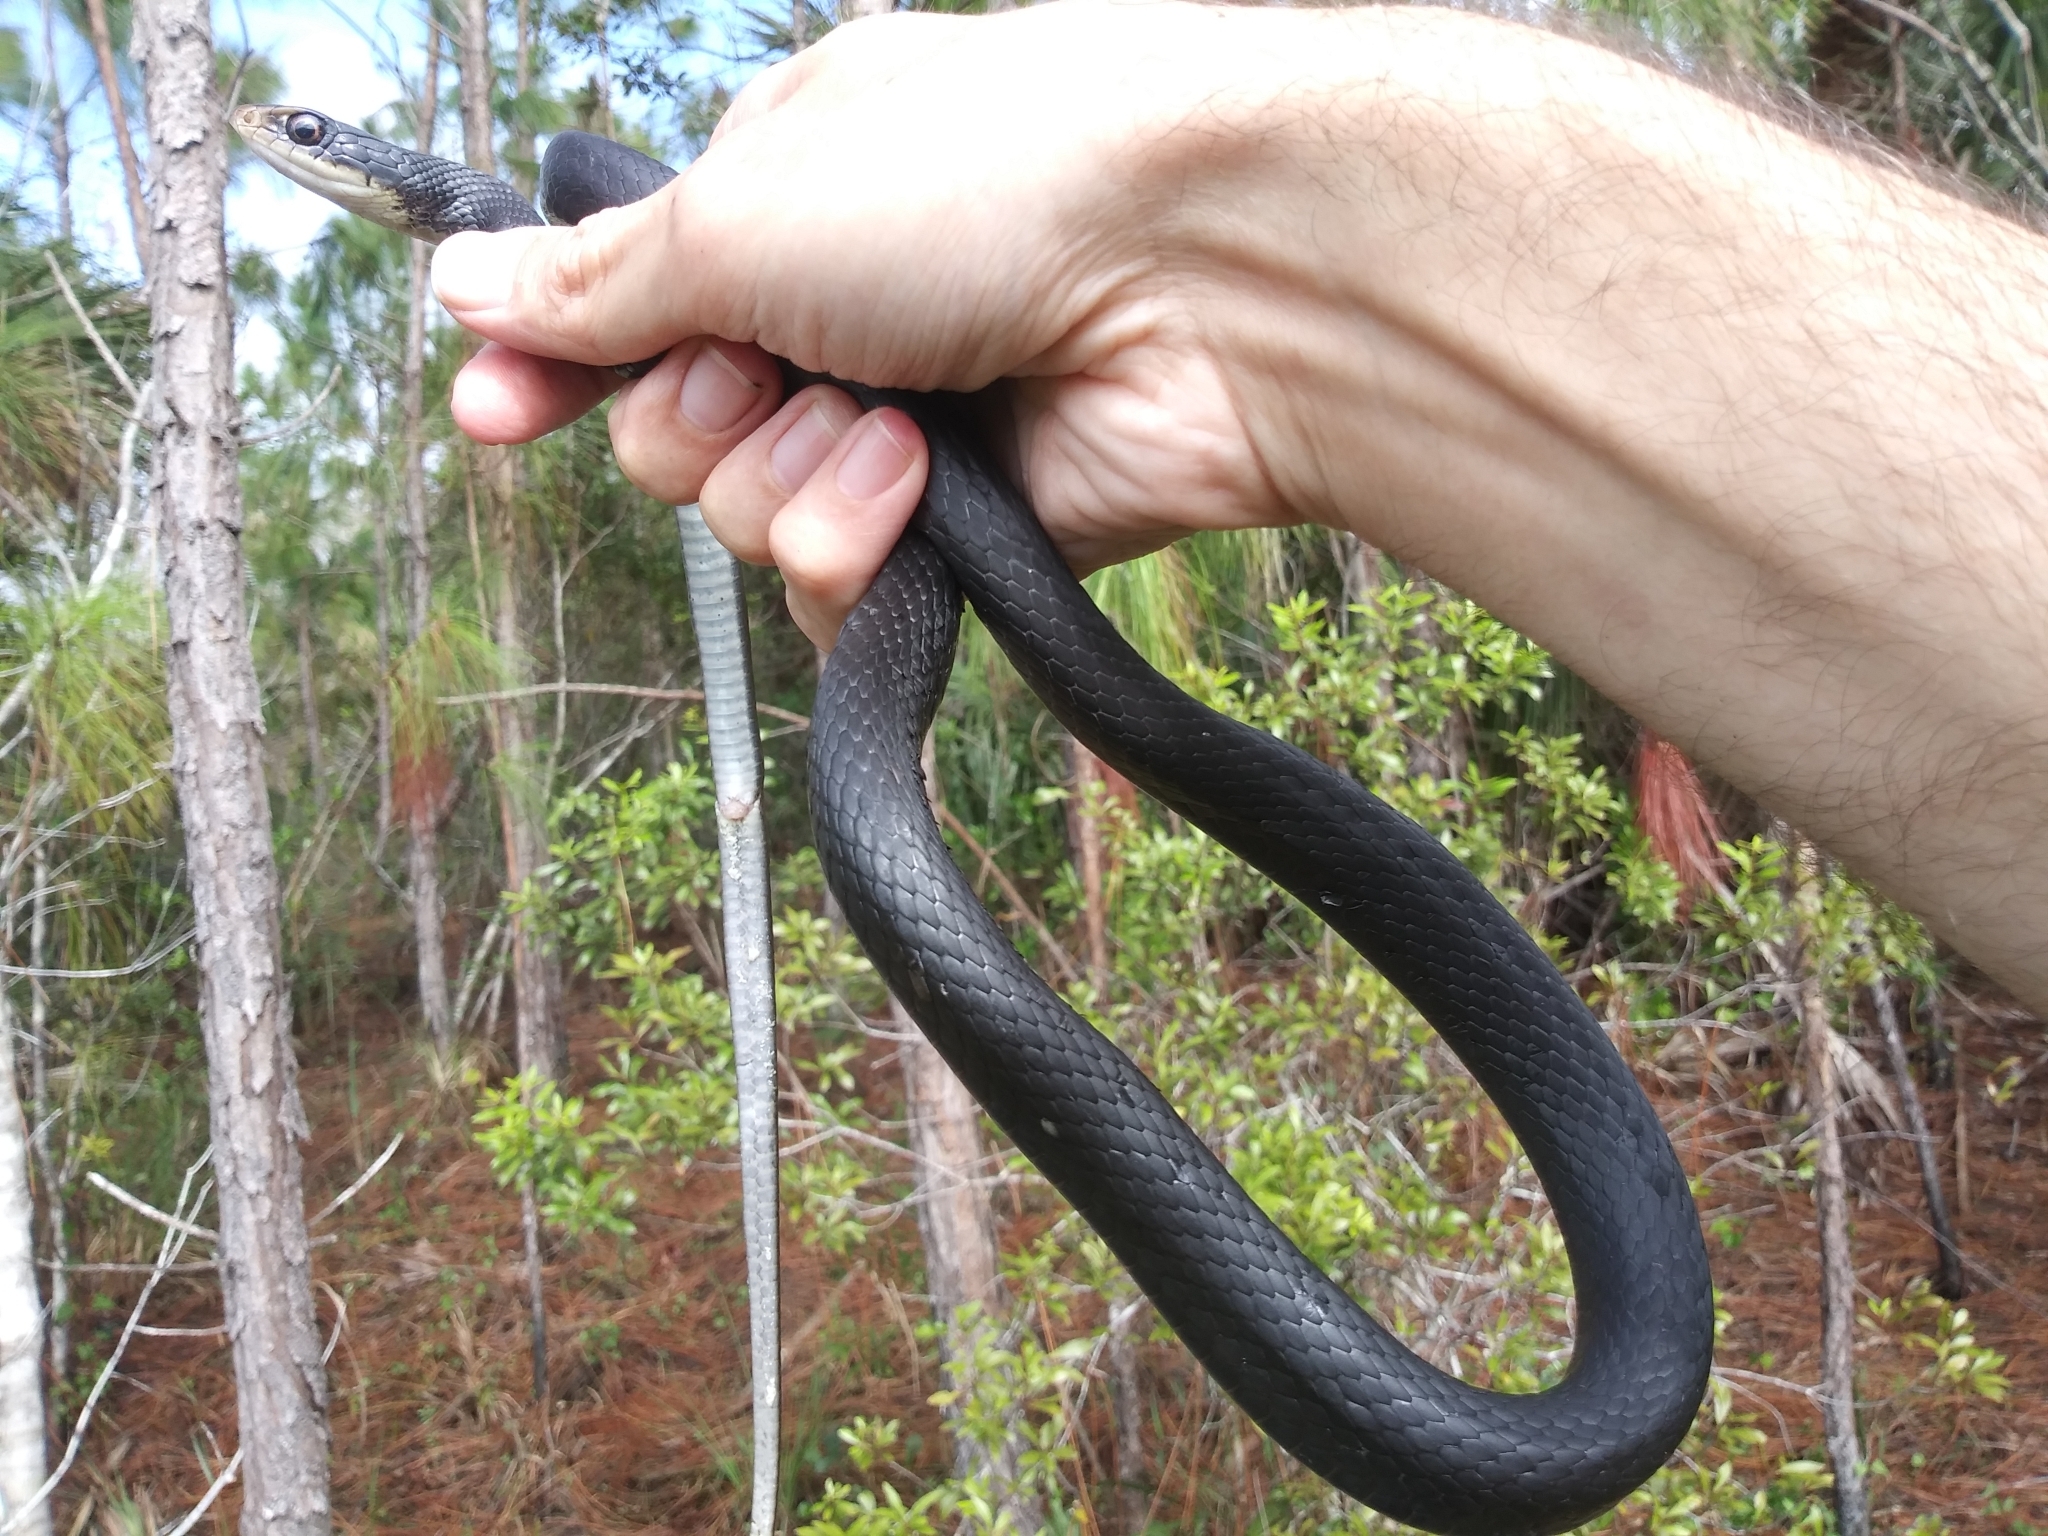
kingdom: Animalia
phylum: Chordata
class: Squamata
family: Colubridae
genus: Coluber
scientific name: Coluber constrictor
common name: Eastern racer
